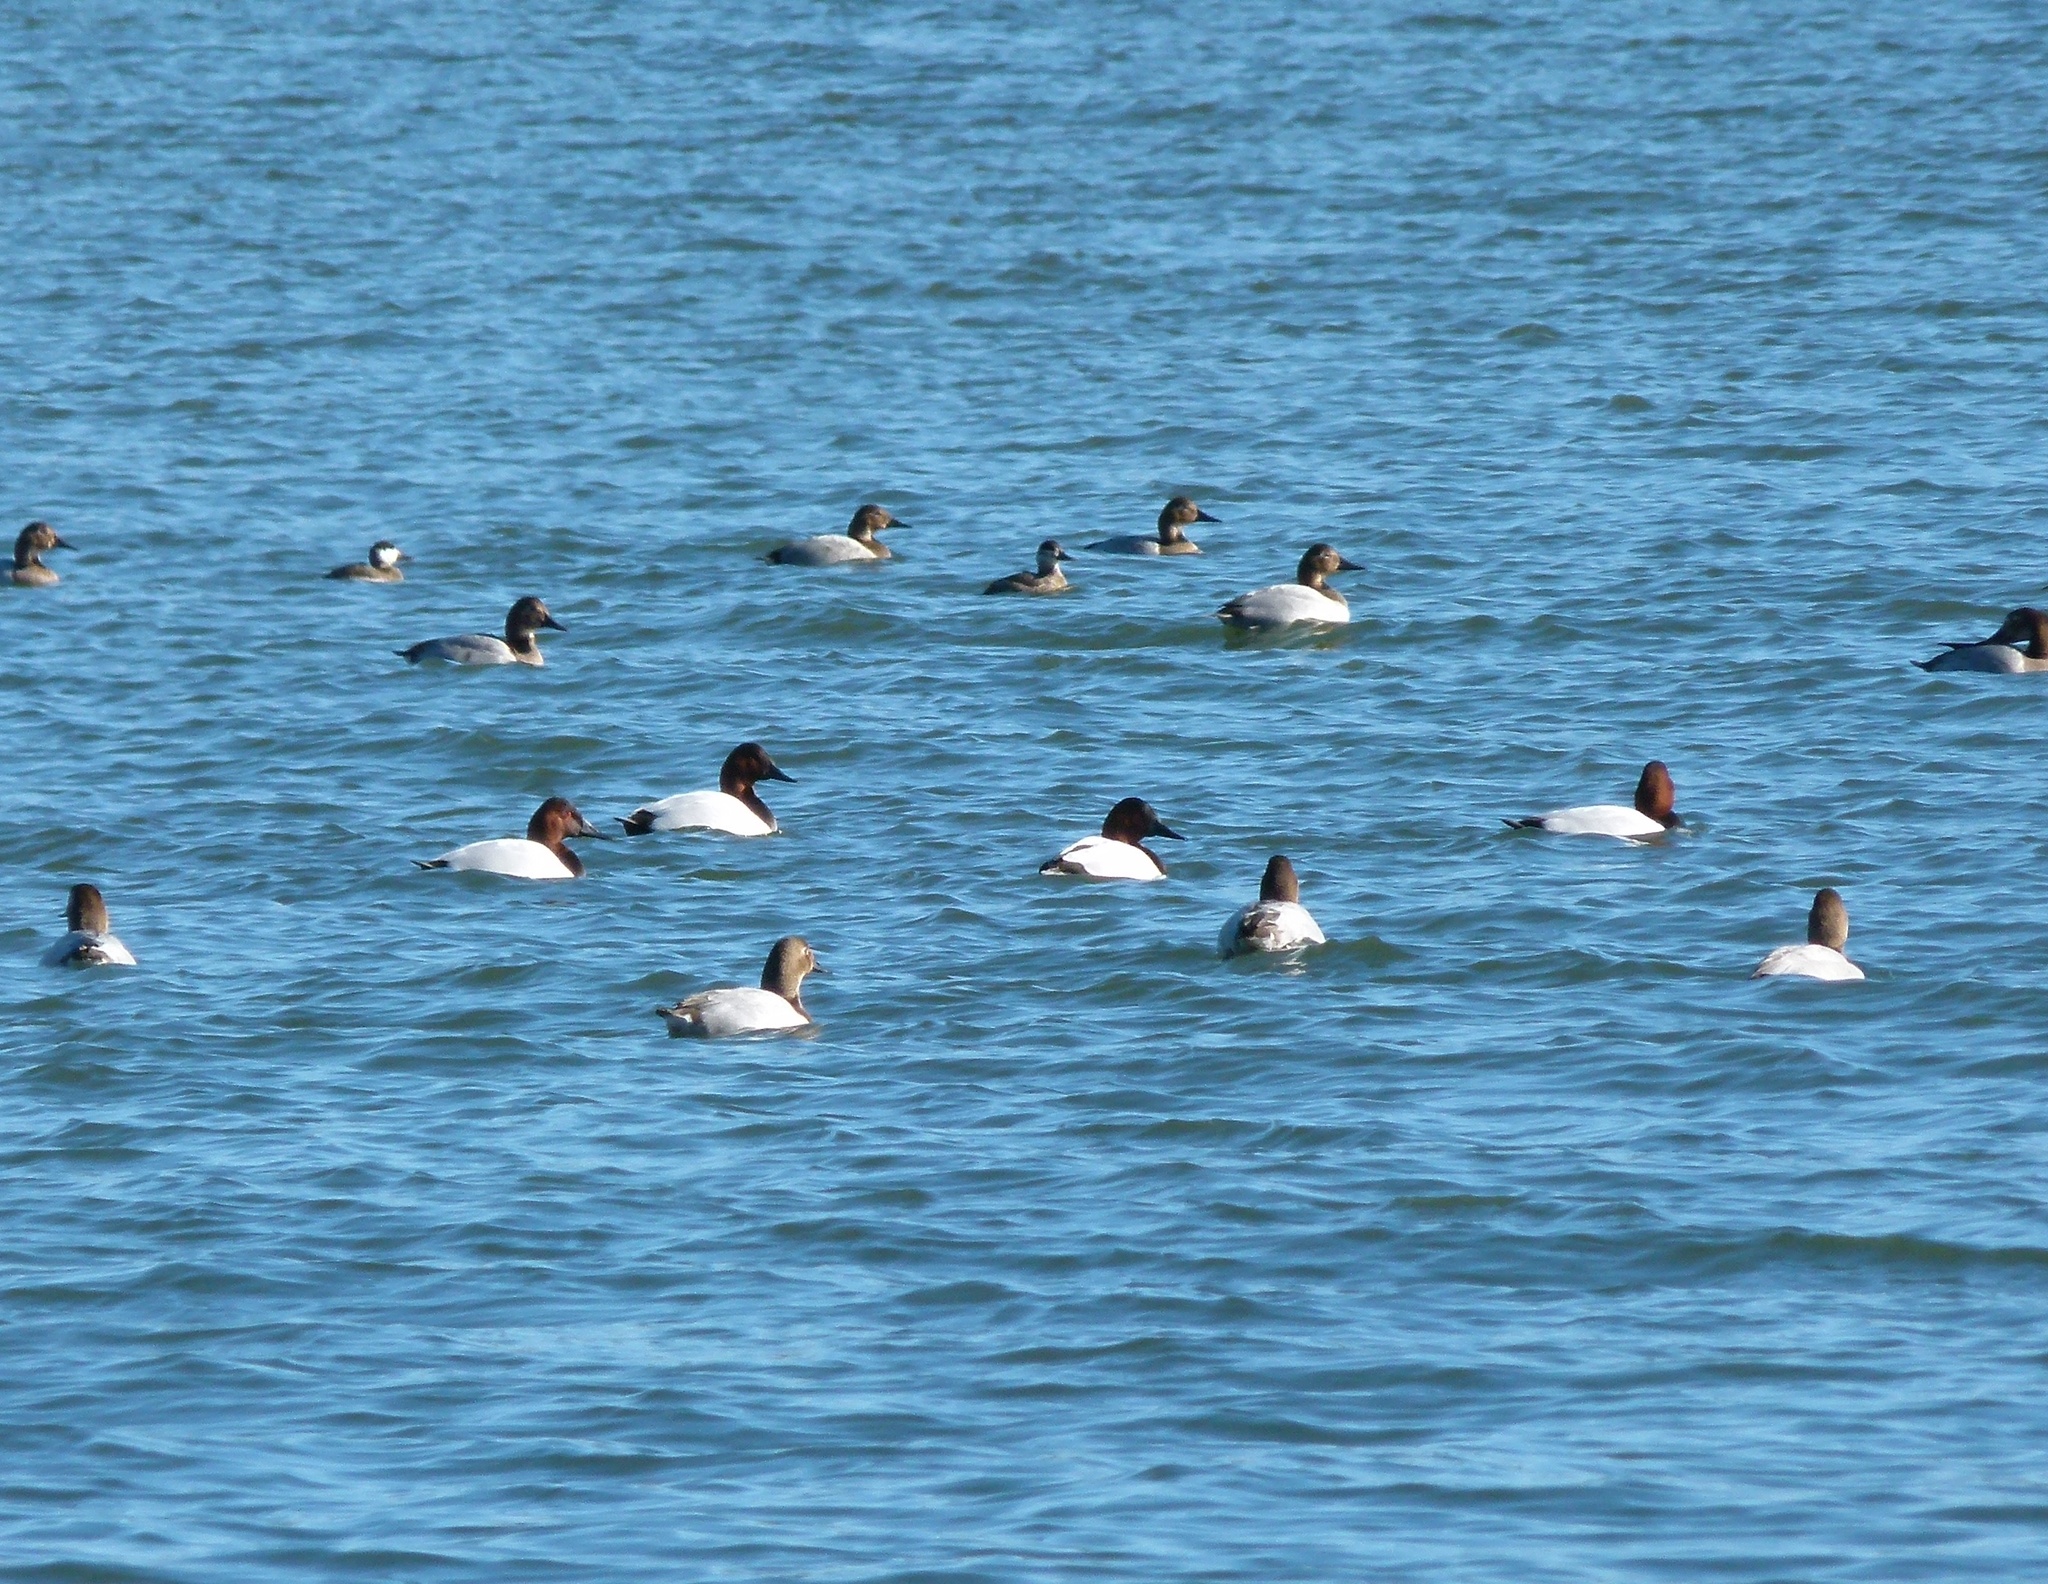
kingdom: Animalia
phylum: Chordata
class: Aves
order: Anseriformes
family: Anatidae
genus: Aythya
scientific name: Aythya valisineria
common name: Canvasback
